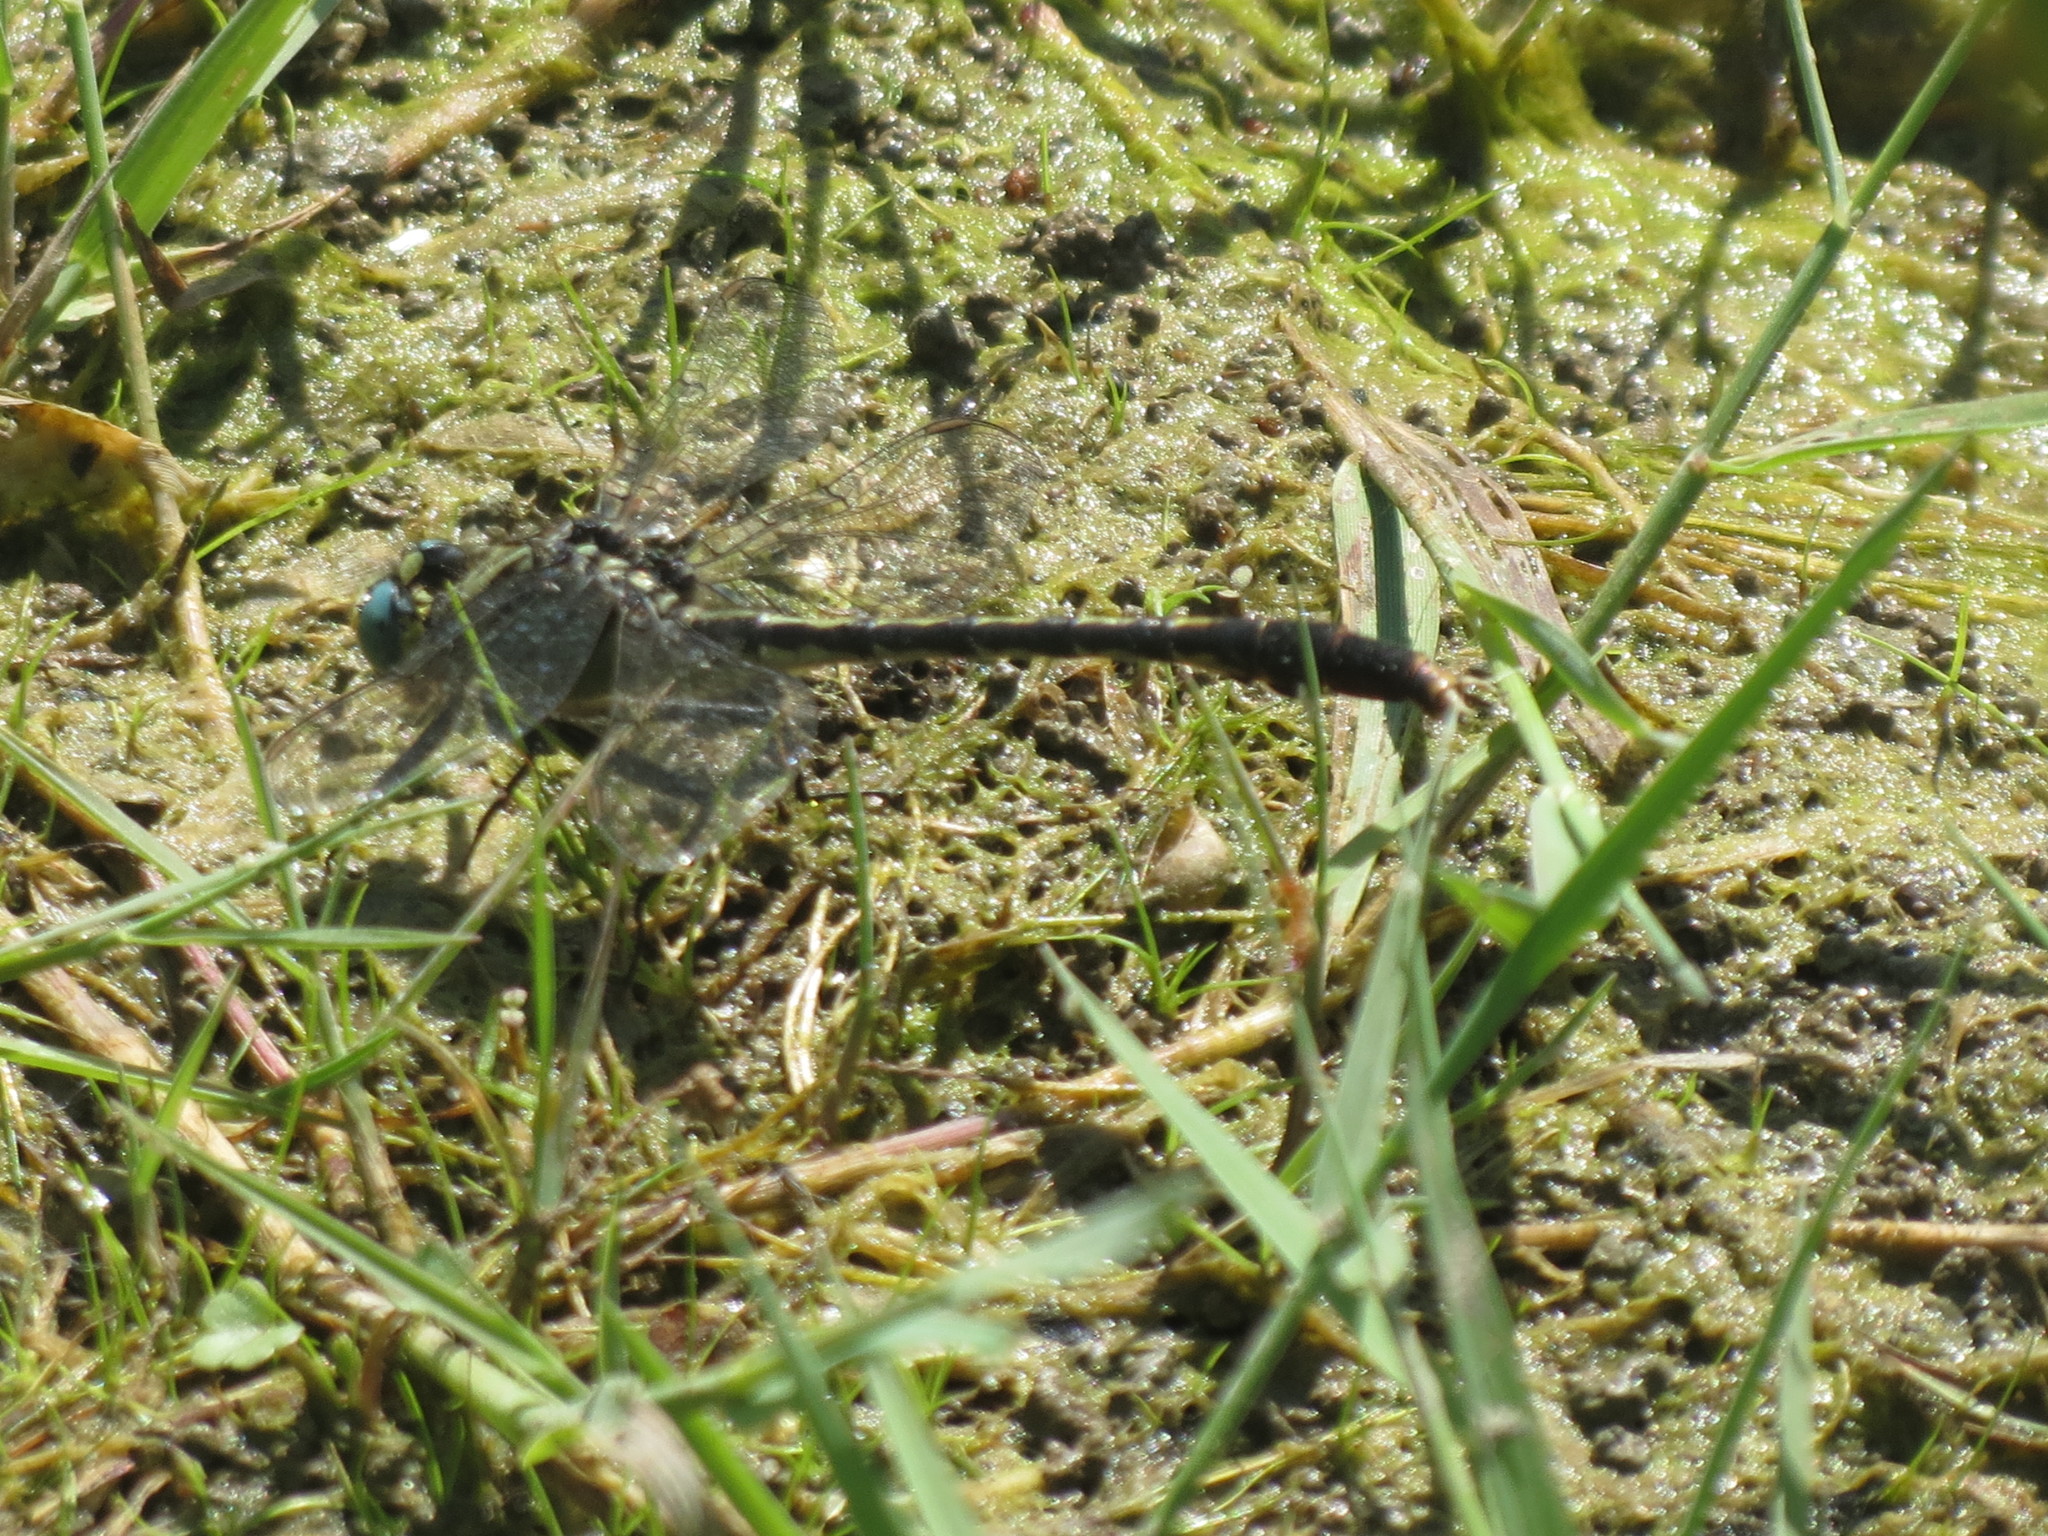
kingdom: Animalia
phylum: Arthropoda
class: Insecta
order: Odonata
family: Gomphidae
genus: Arigomphus
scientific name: Arigomphus villosipes
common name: Unicorn clubtail
